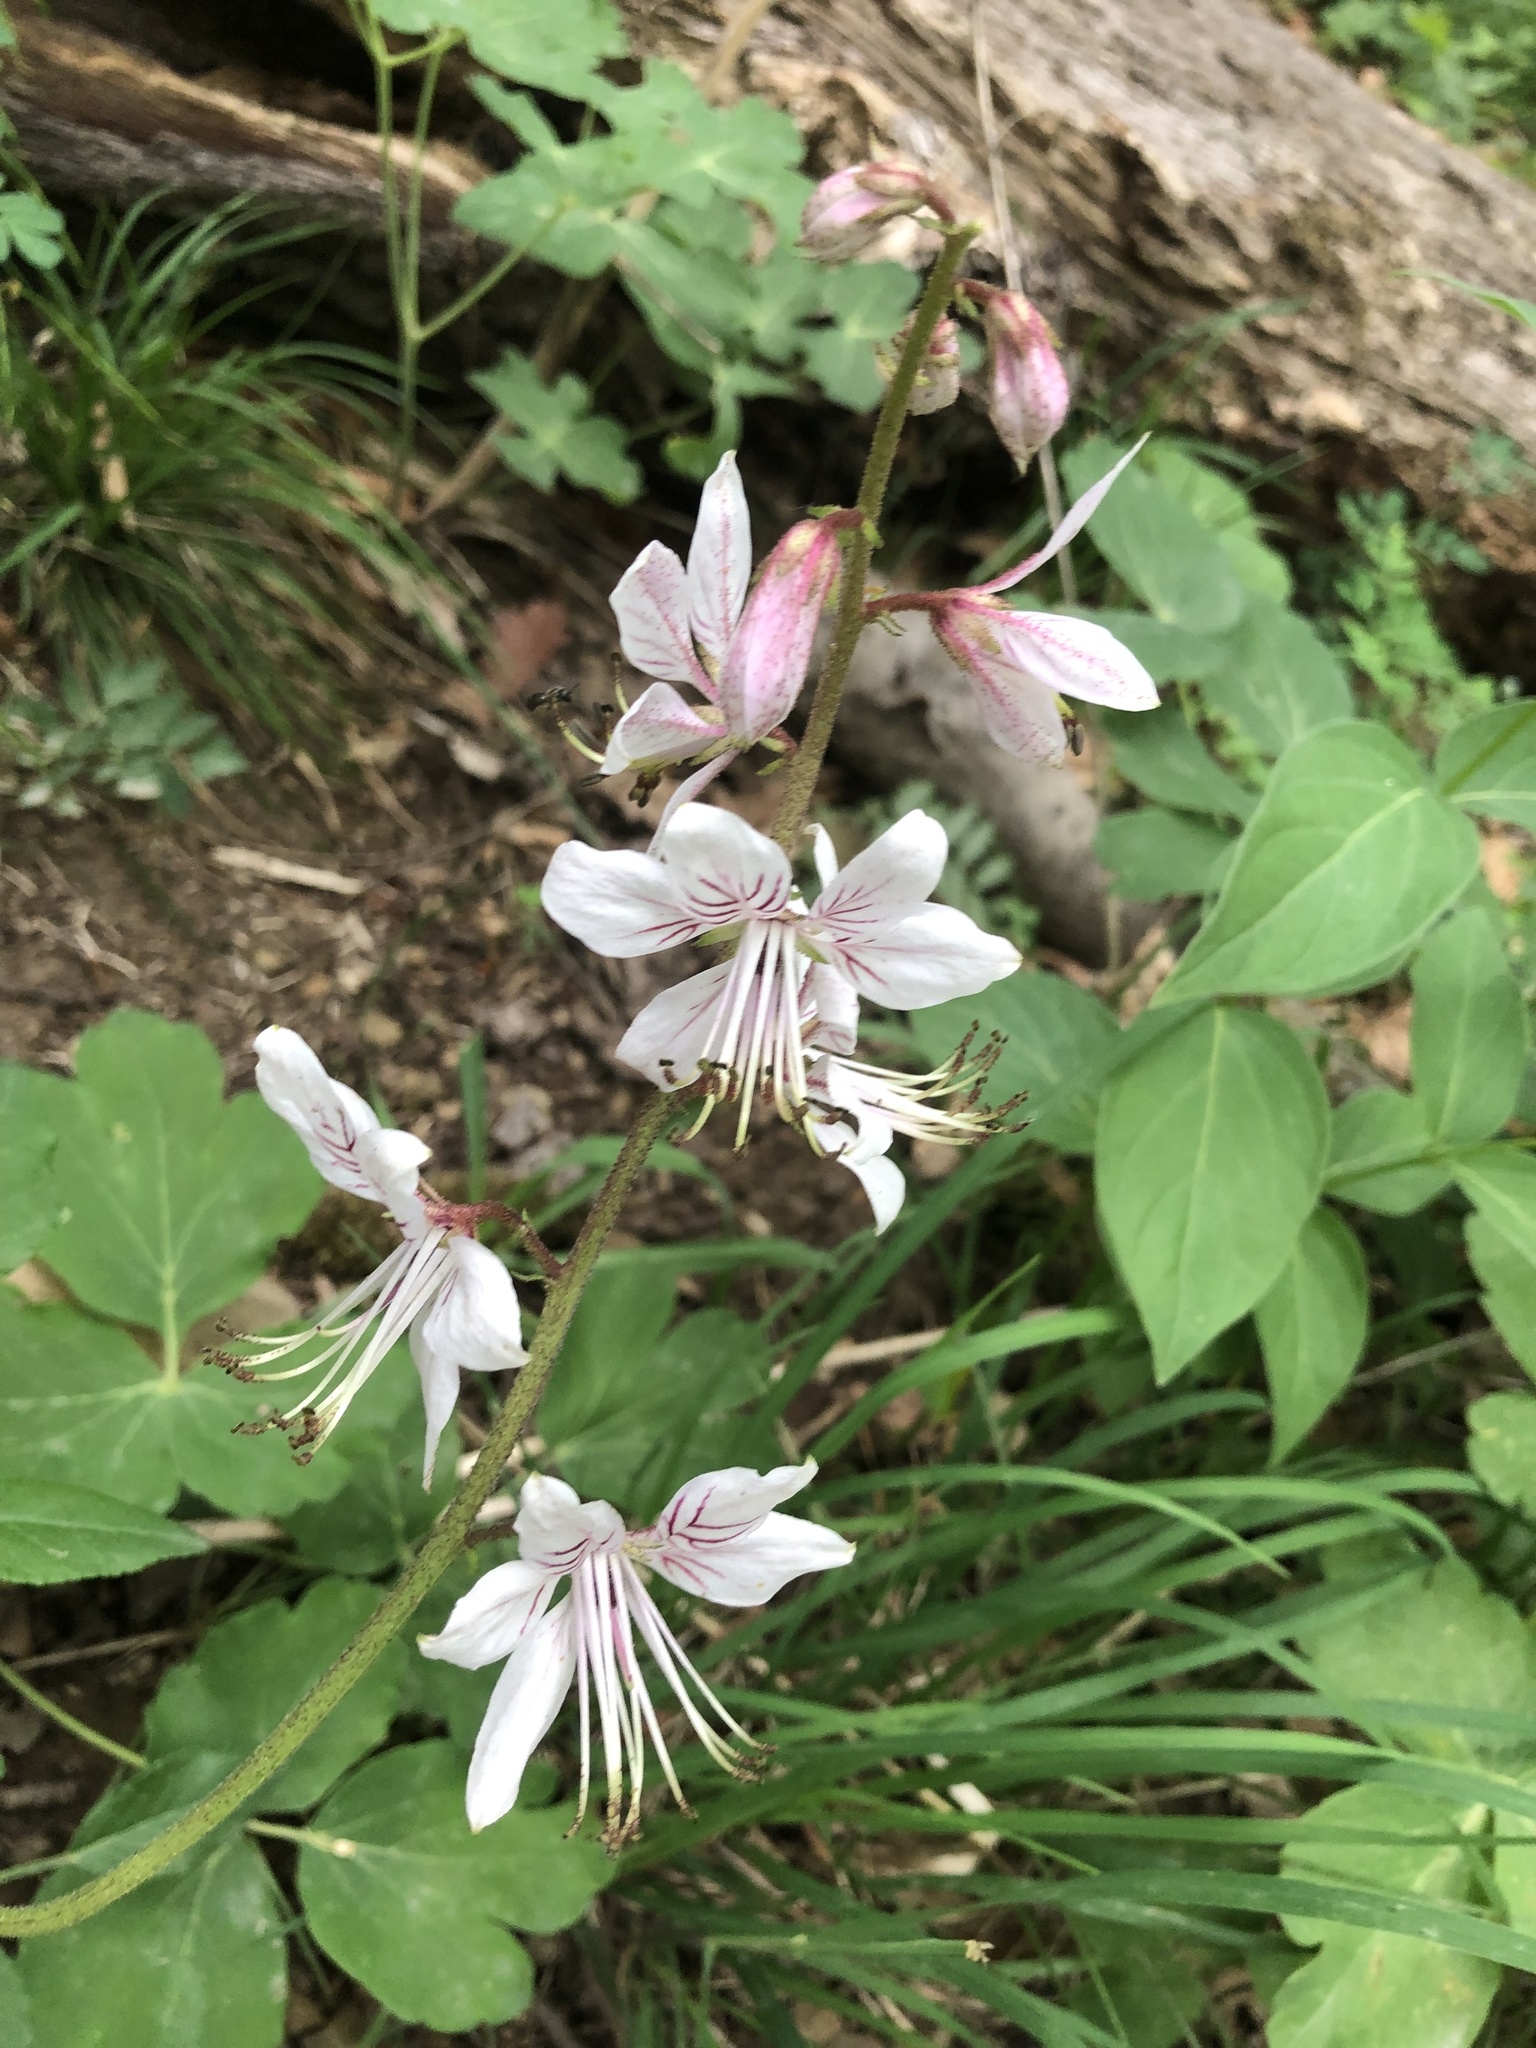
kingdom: Plantae
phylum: Tracheophyta
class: Magnoliopsida
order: Sapindales
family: Rutaceae
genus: Dictamnus
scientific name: Dictamnus albus
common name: Gasplant
